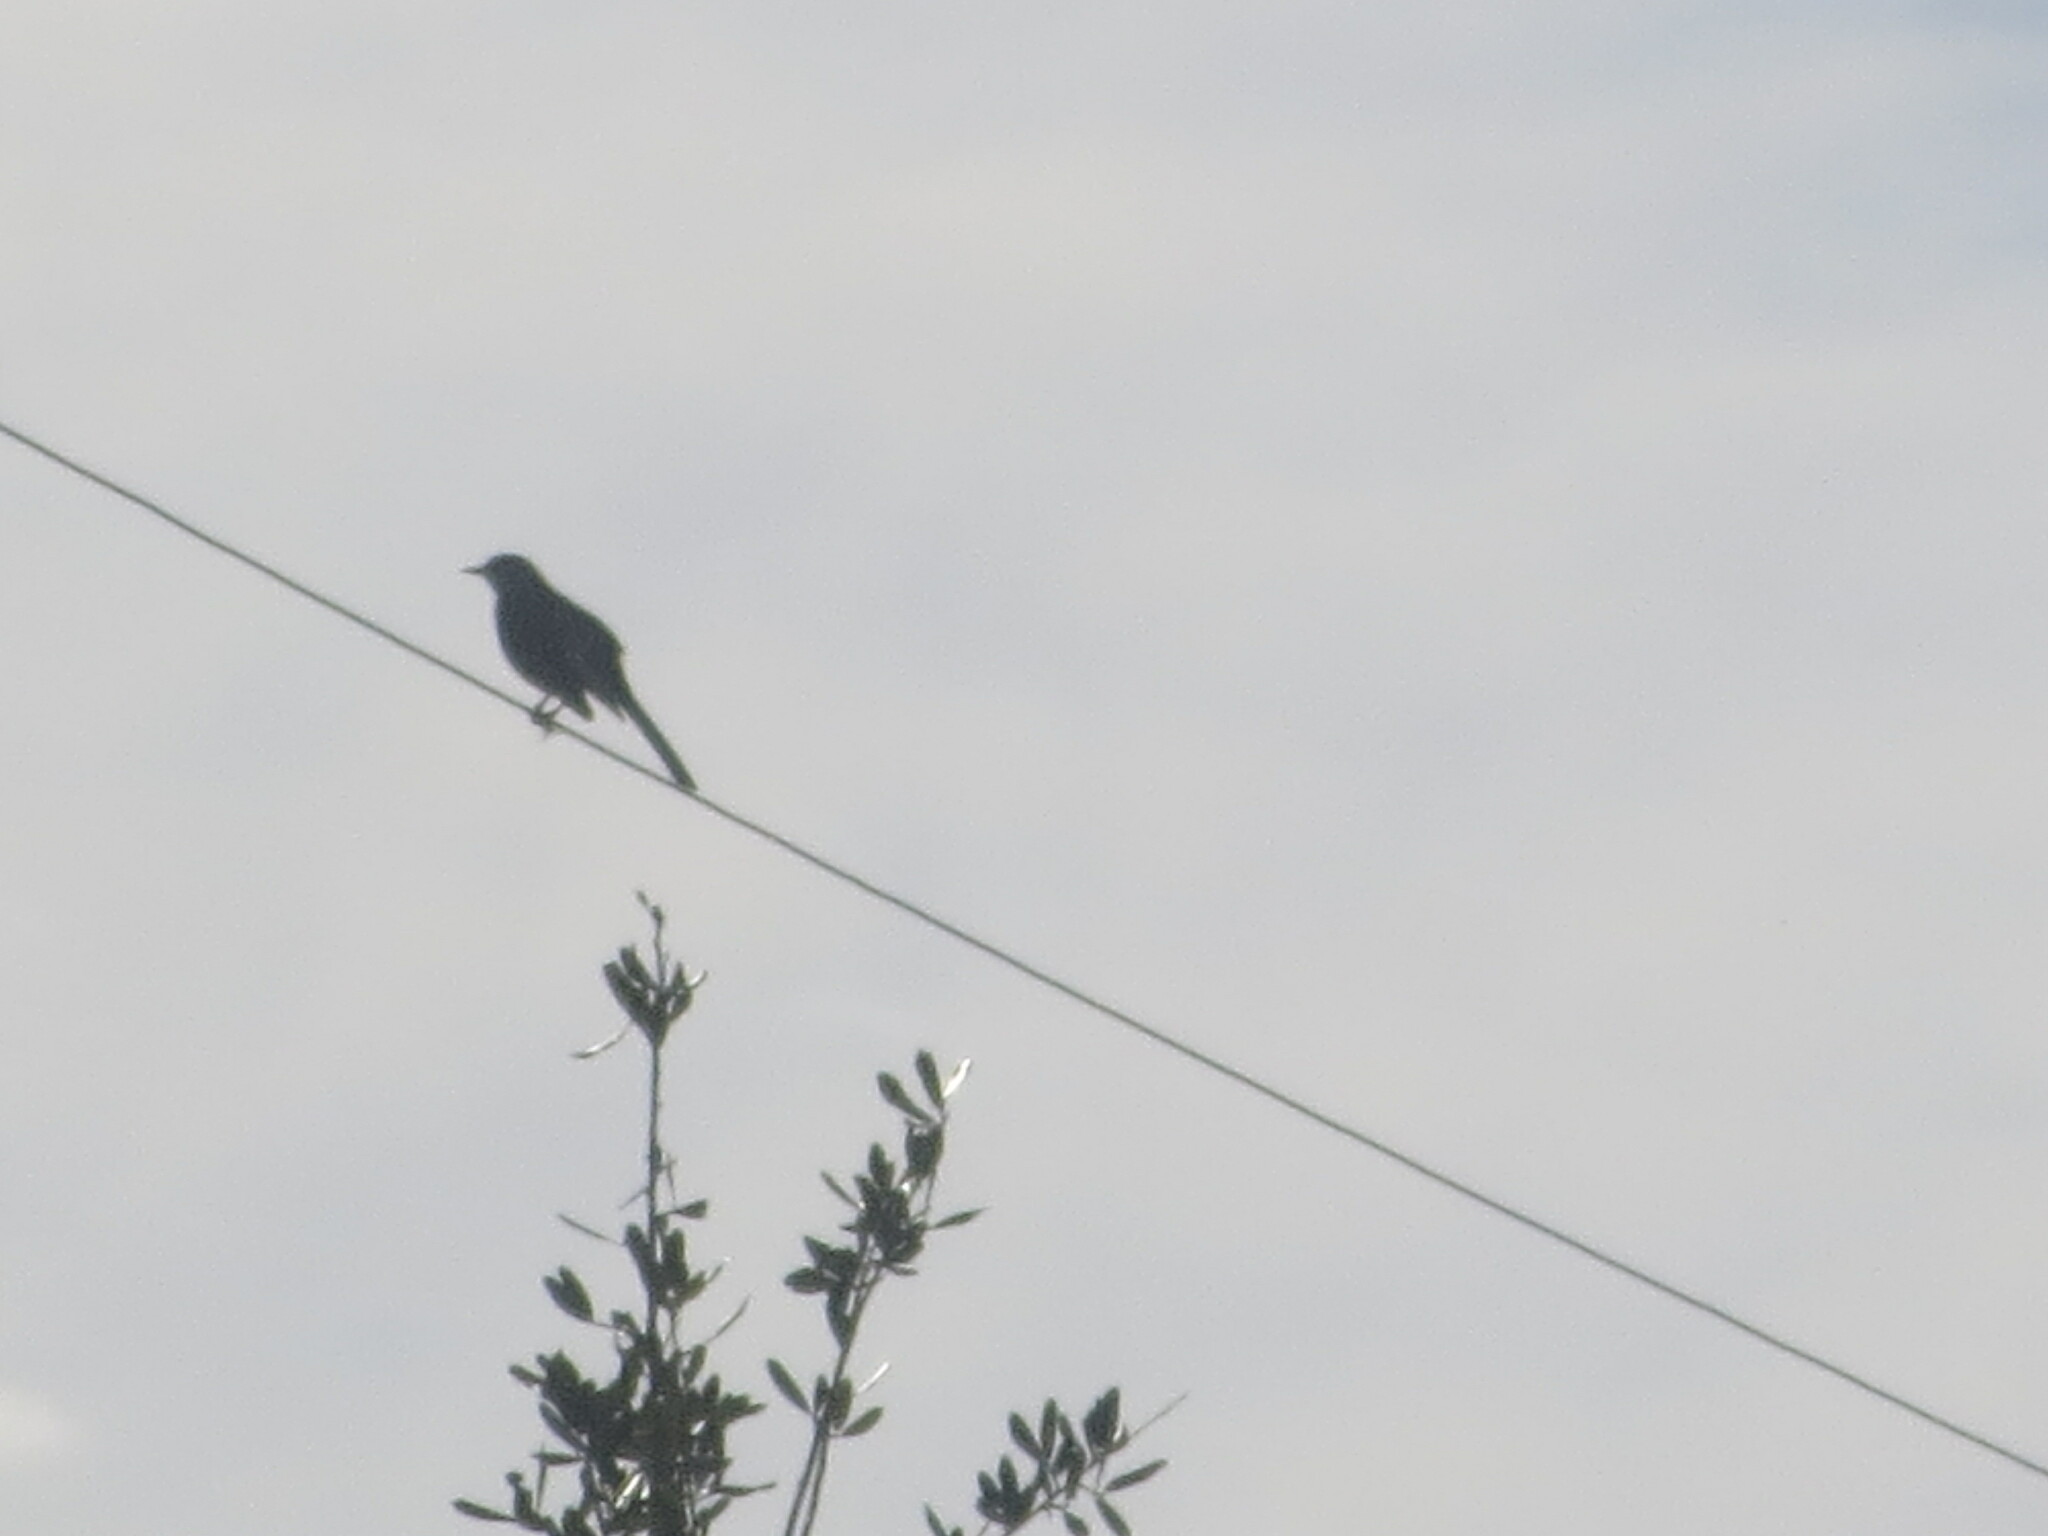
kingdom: Animalia
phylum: Chordata
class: Aves
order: Passeriformes
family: Mimidae
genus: Mimus
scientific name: Mimus polyglottos
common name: Northern mockingbird
